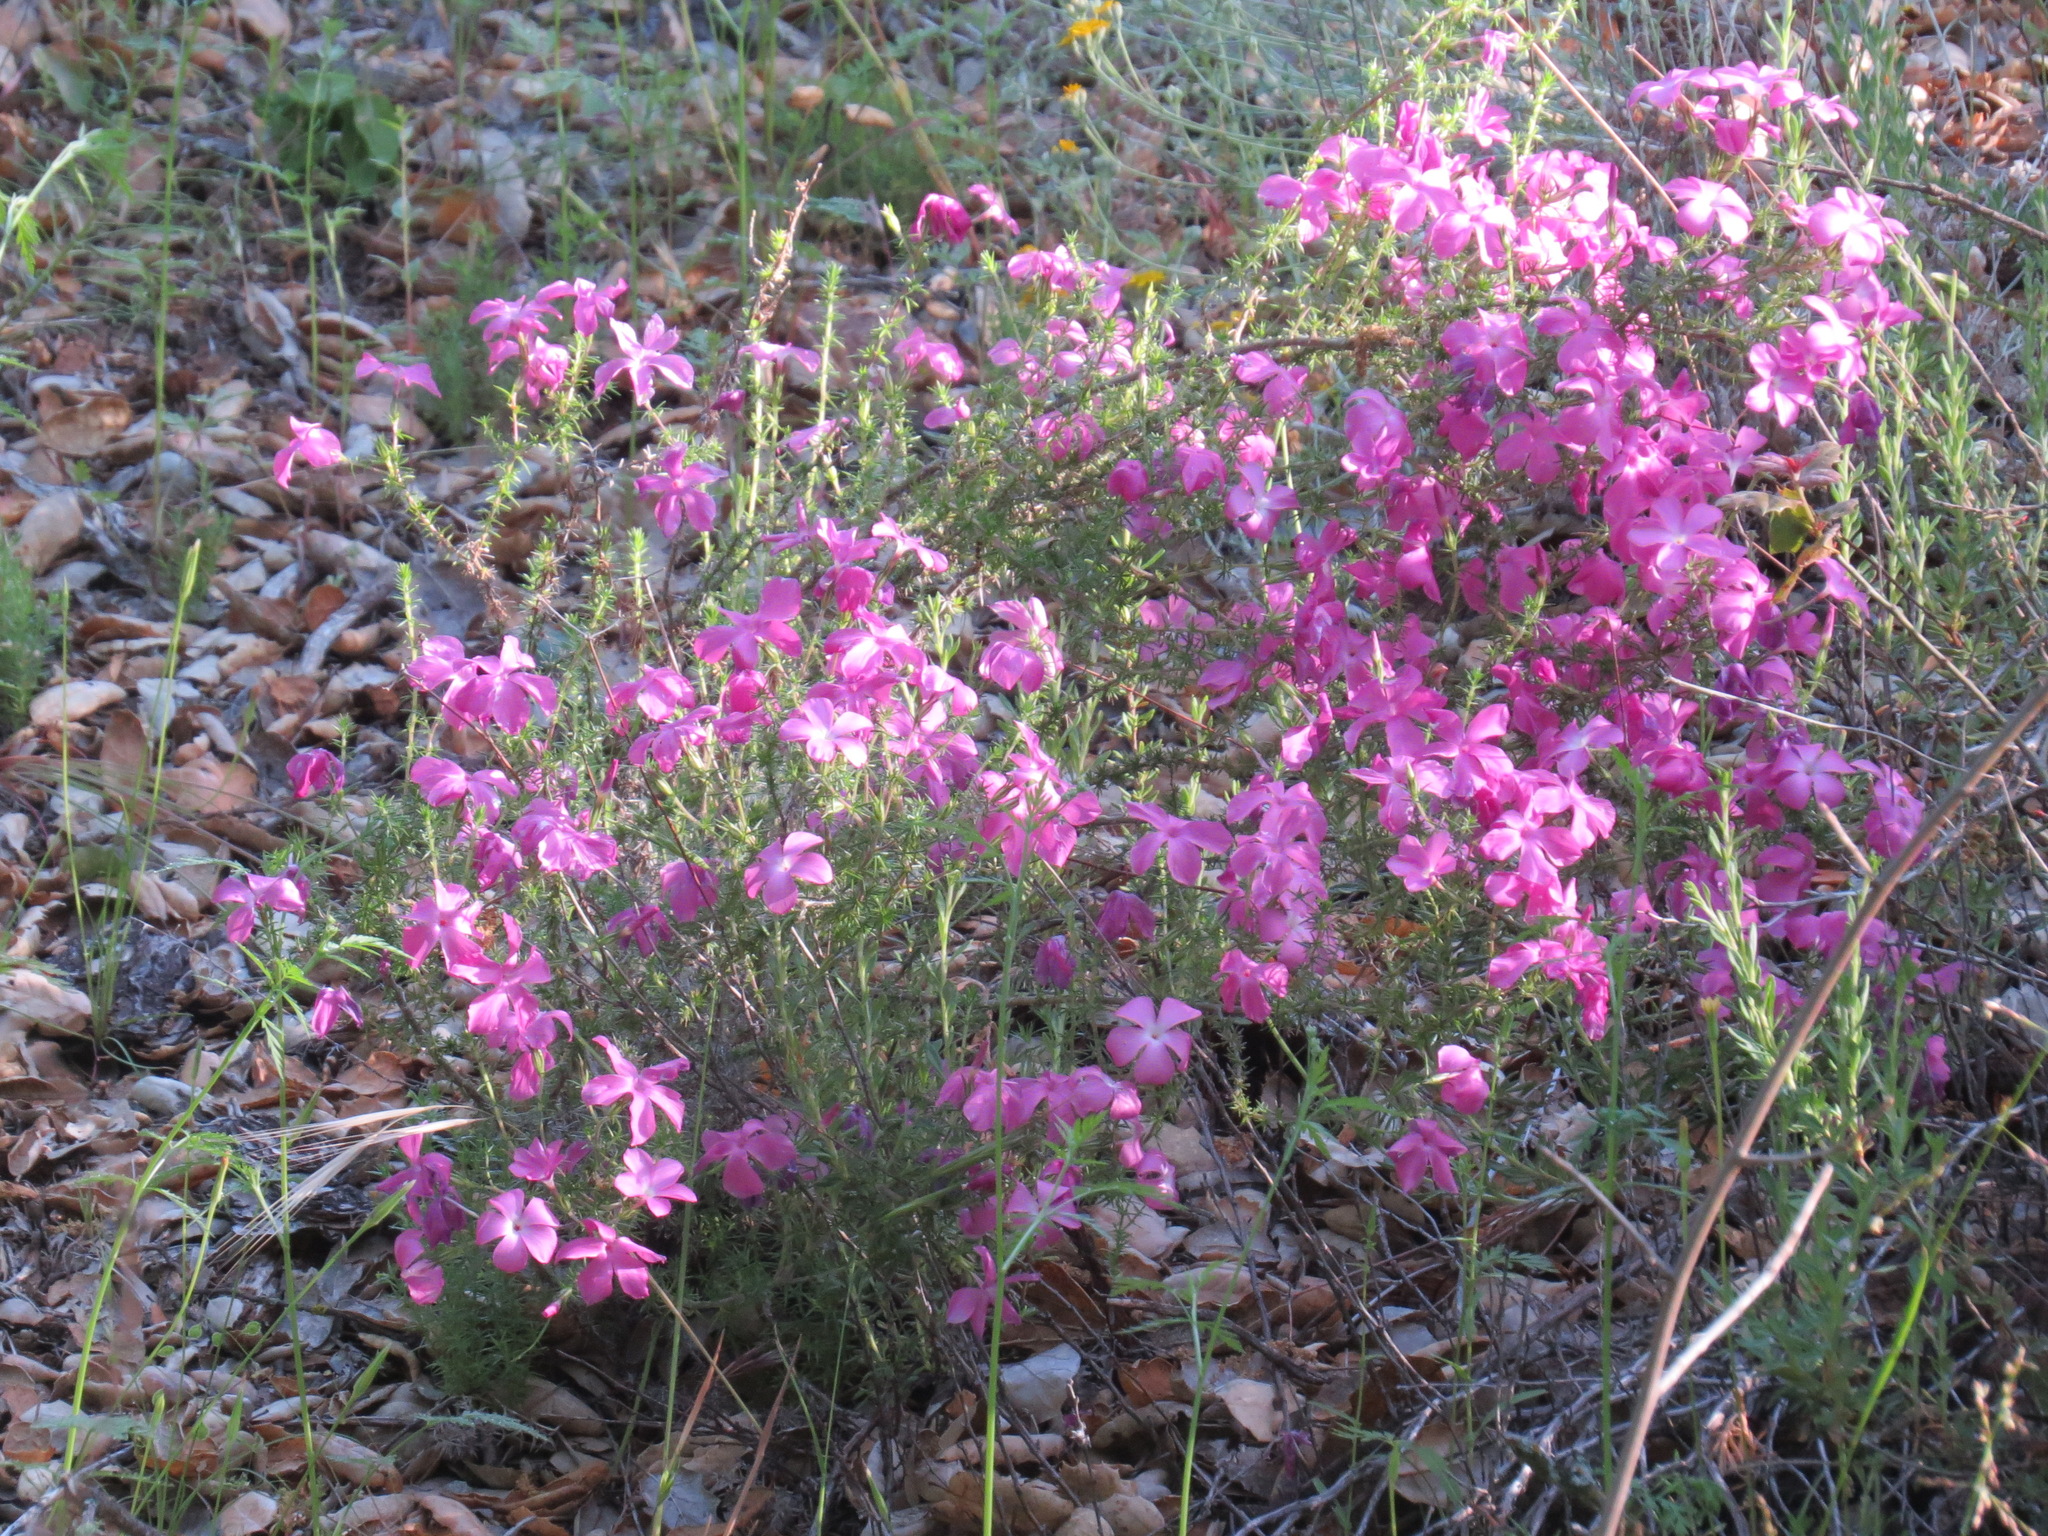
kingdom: Plantae
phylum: Tracheophyta
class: Magnoliopsida
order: Ericales
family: Polemoniaceae
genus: Linanthus
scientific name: Linanthus californicus
